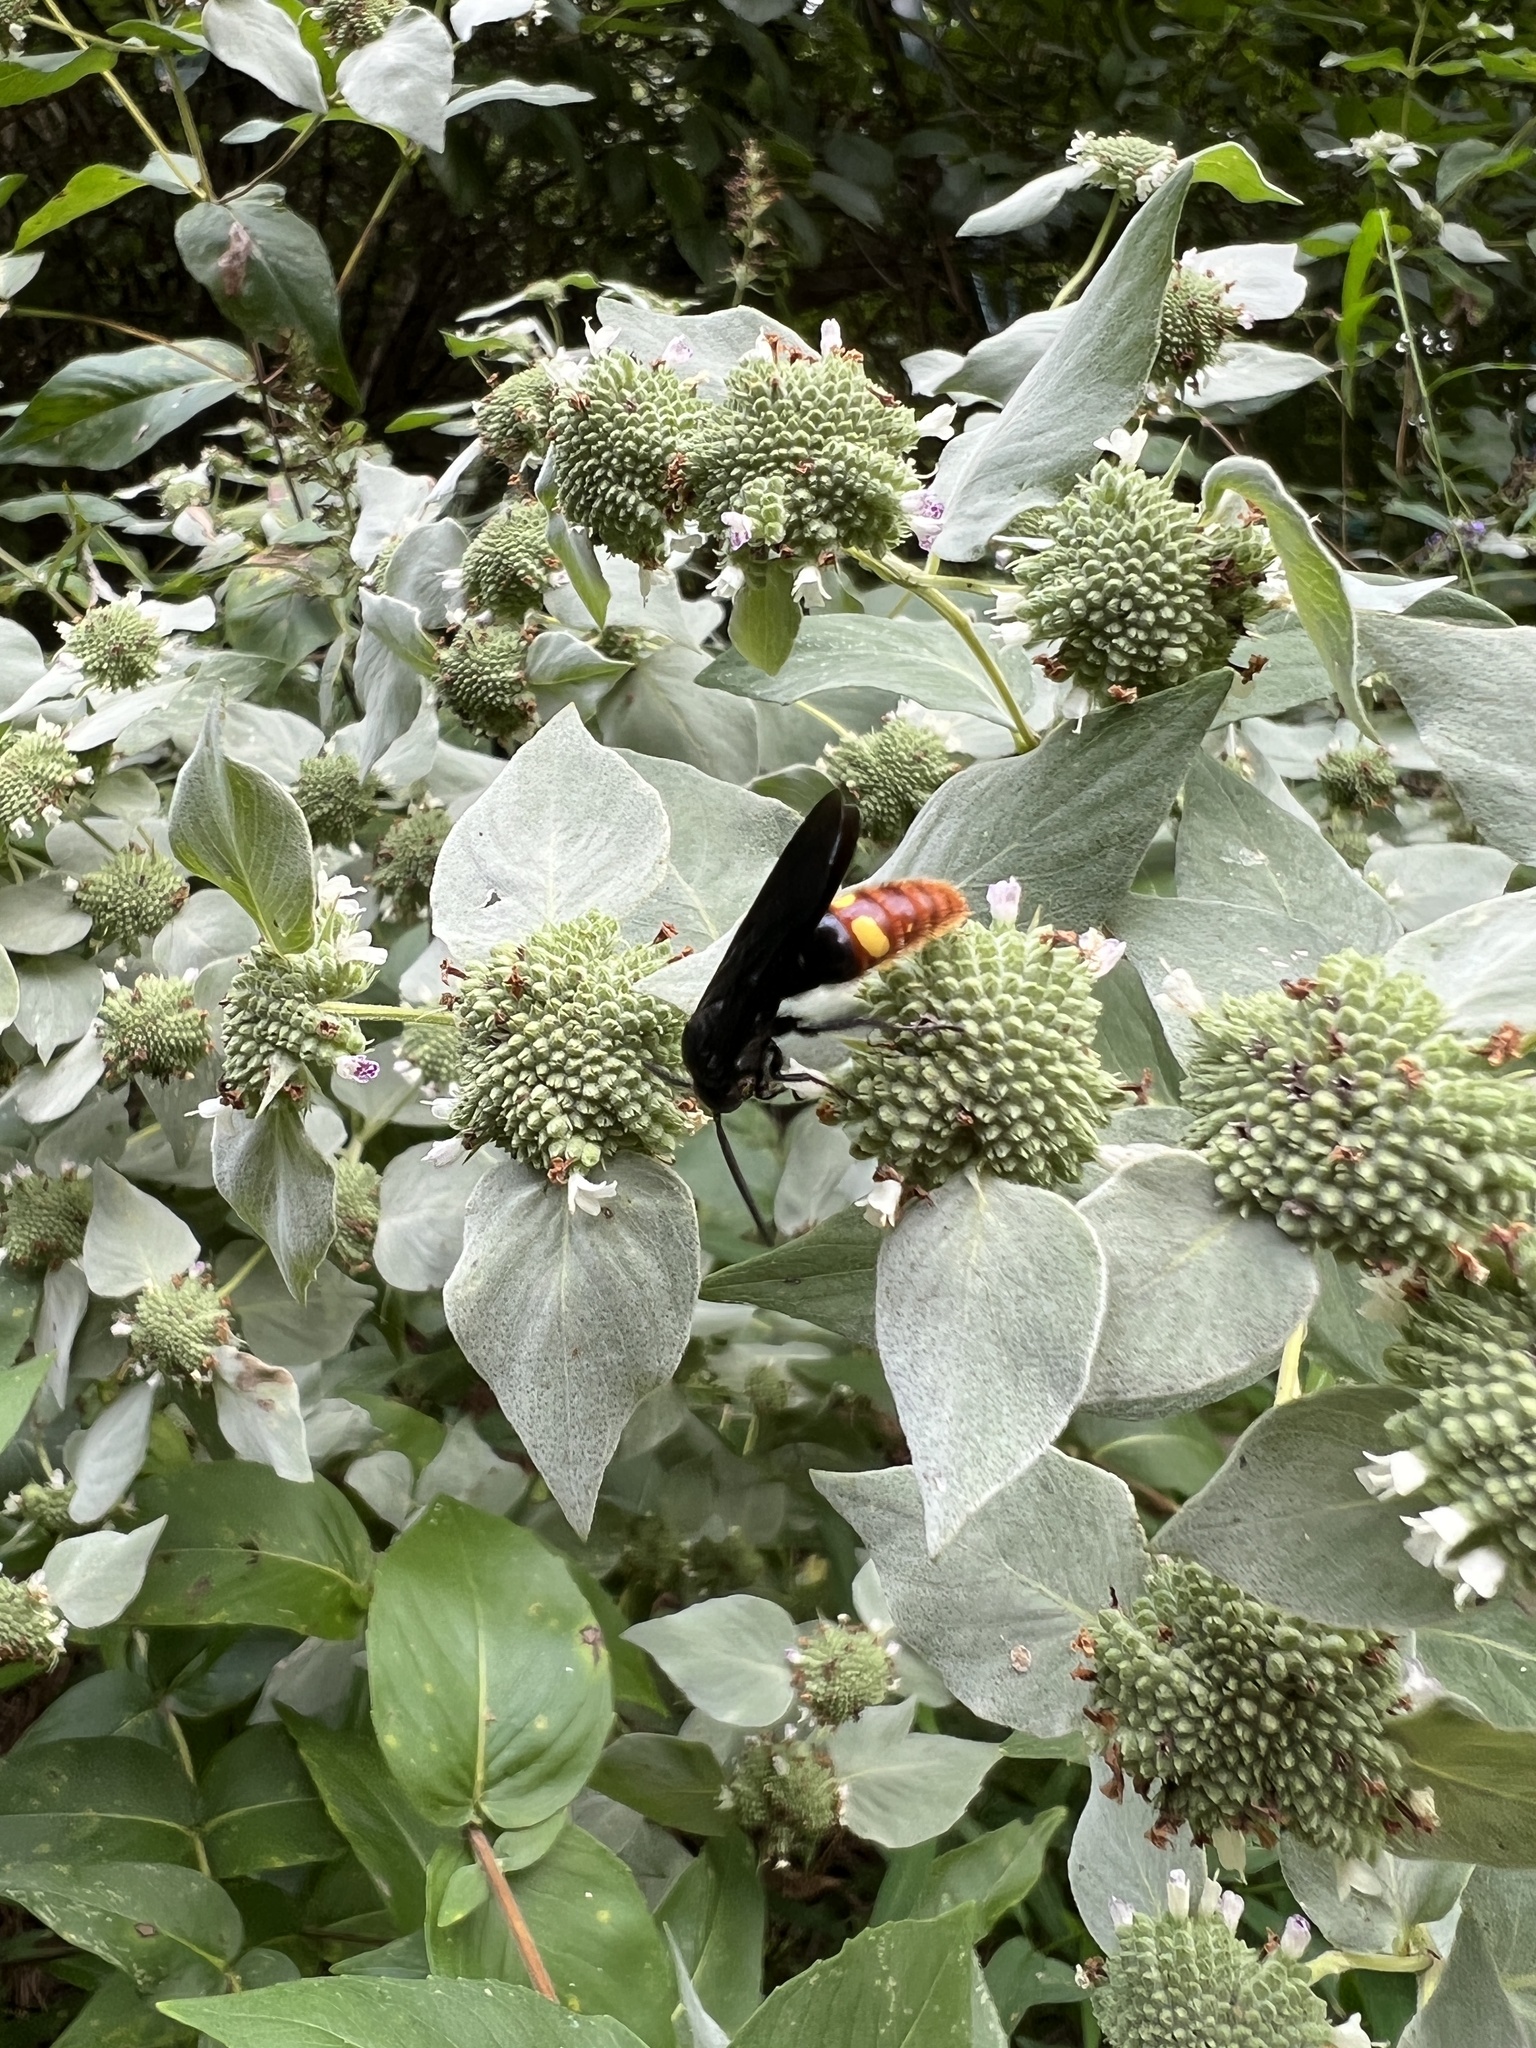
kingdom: Animalia
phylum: Arthropoda
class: Insecta
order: Hymenoptera
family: Scoliidae
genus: Scolia
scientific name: Scolia dubia
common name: Blue-winged scoliid wasp
